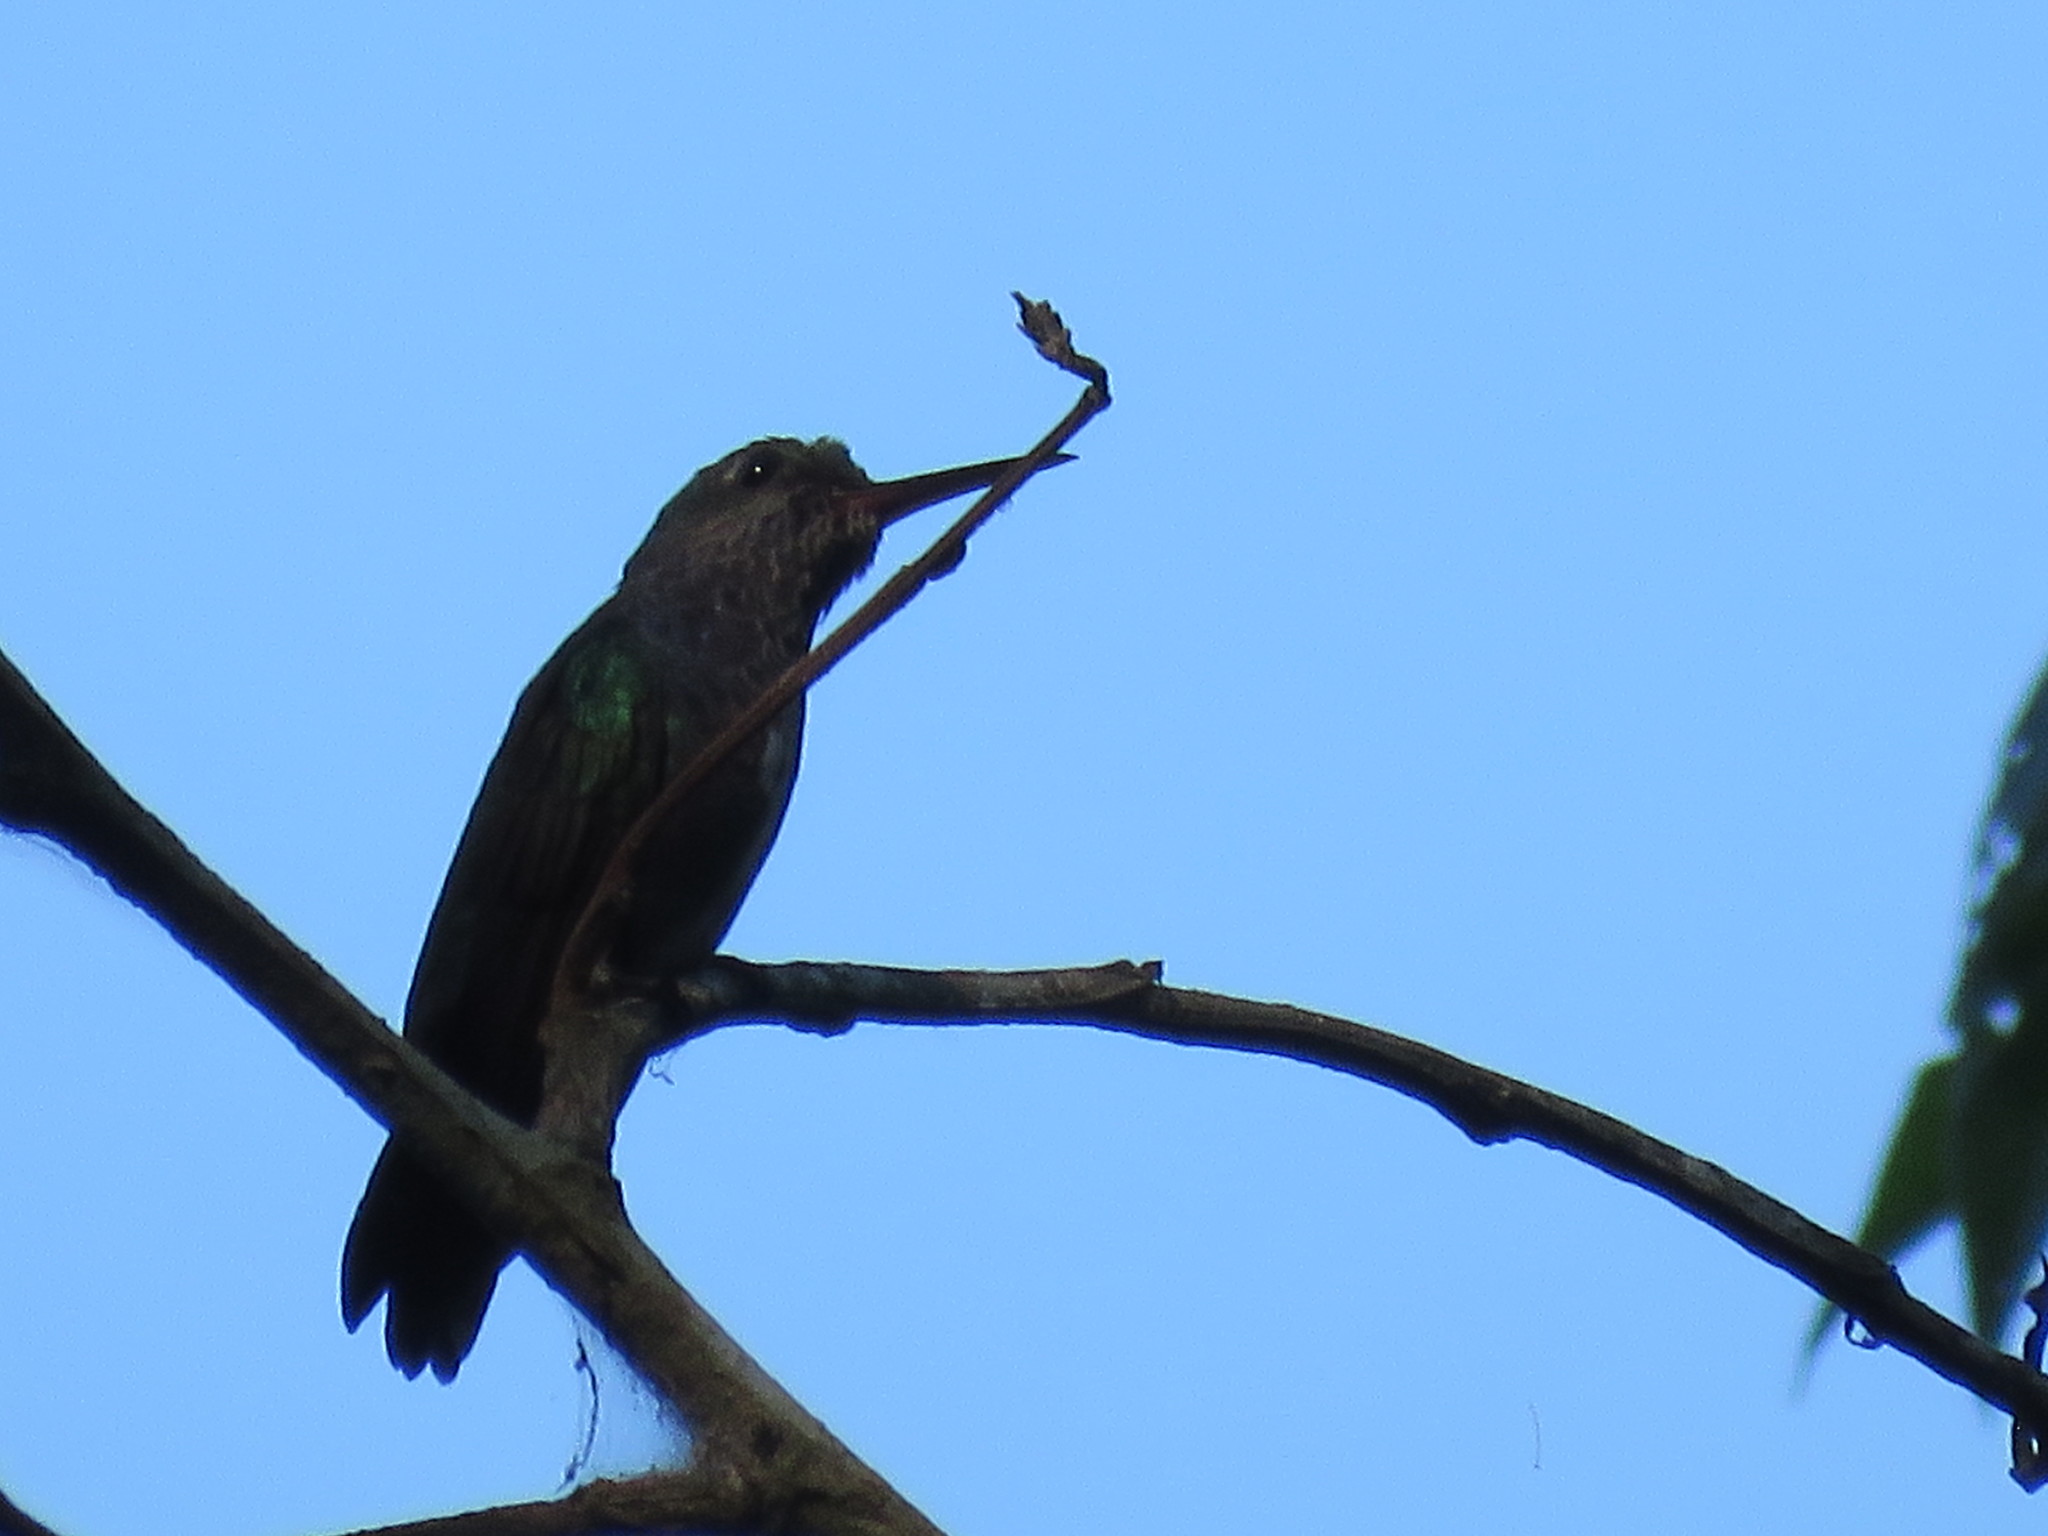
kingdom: Animalia
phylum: Chordata
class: Aves
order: Apodiformes
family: Trochilidae
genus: Chlorostilbon
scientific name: Chlorostilbon mellisugus
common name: Blue-tailed emerald
